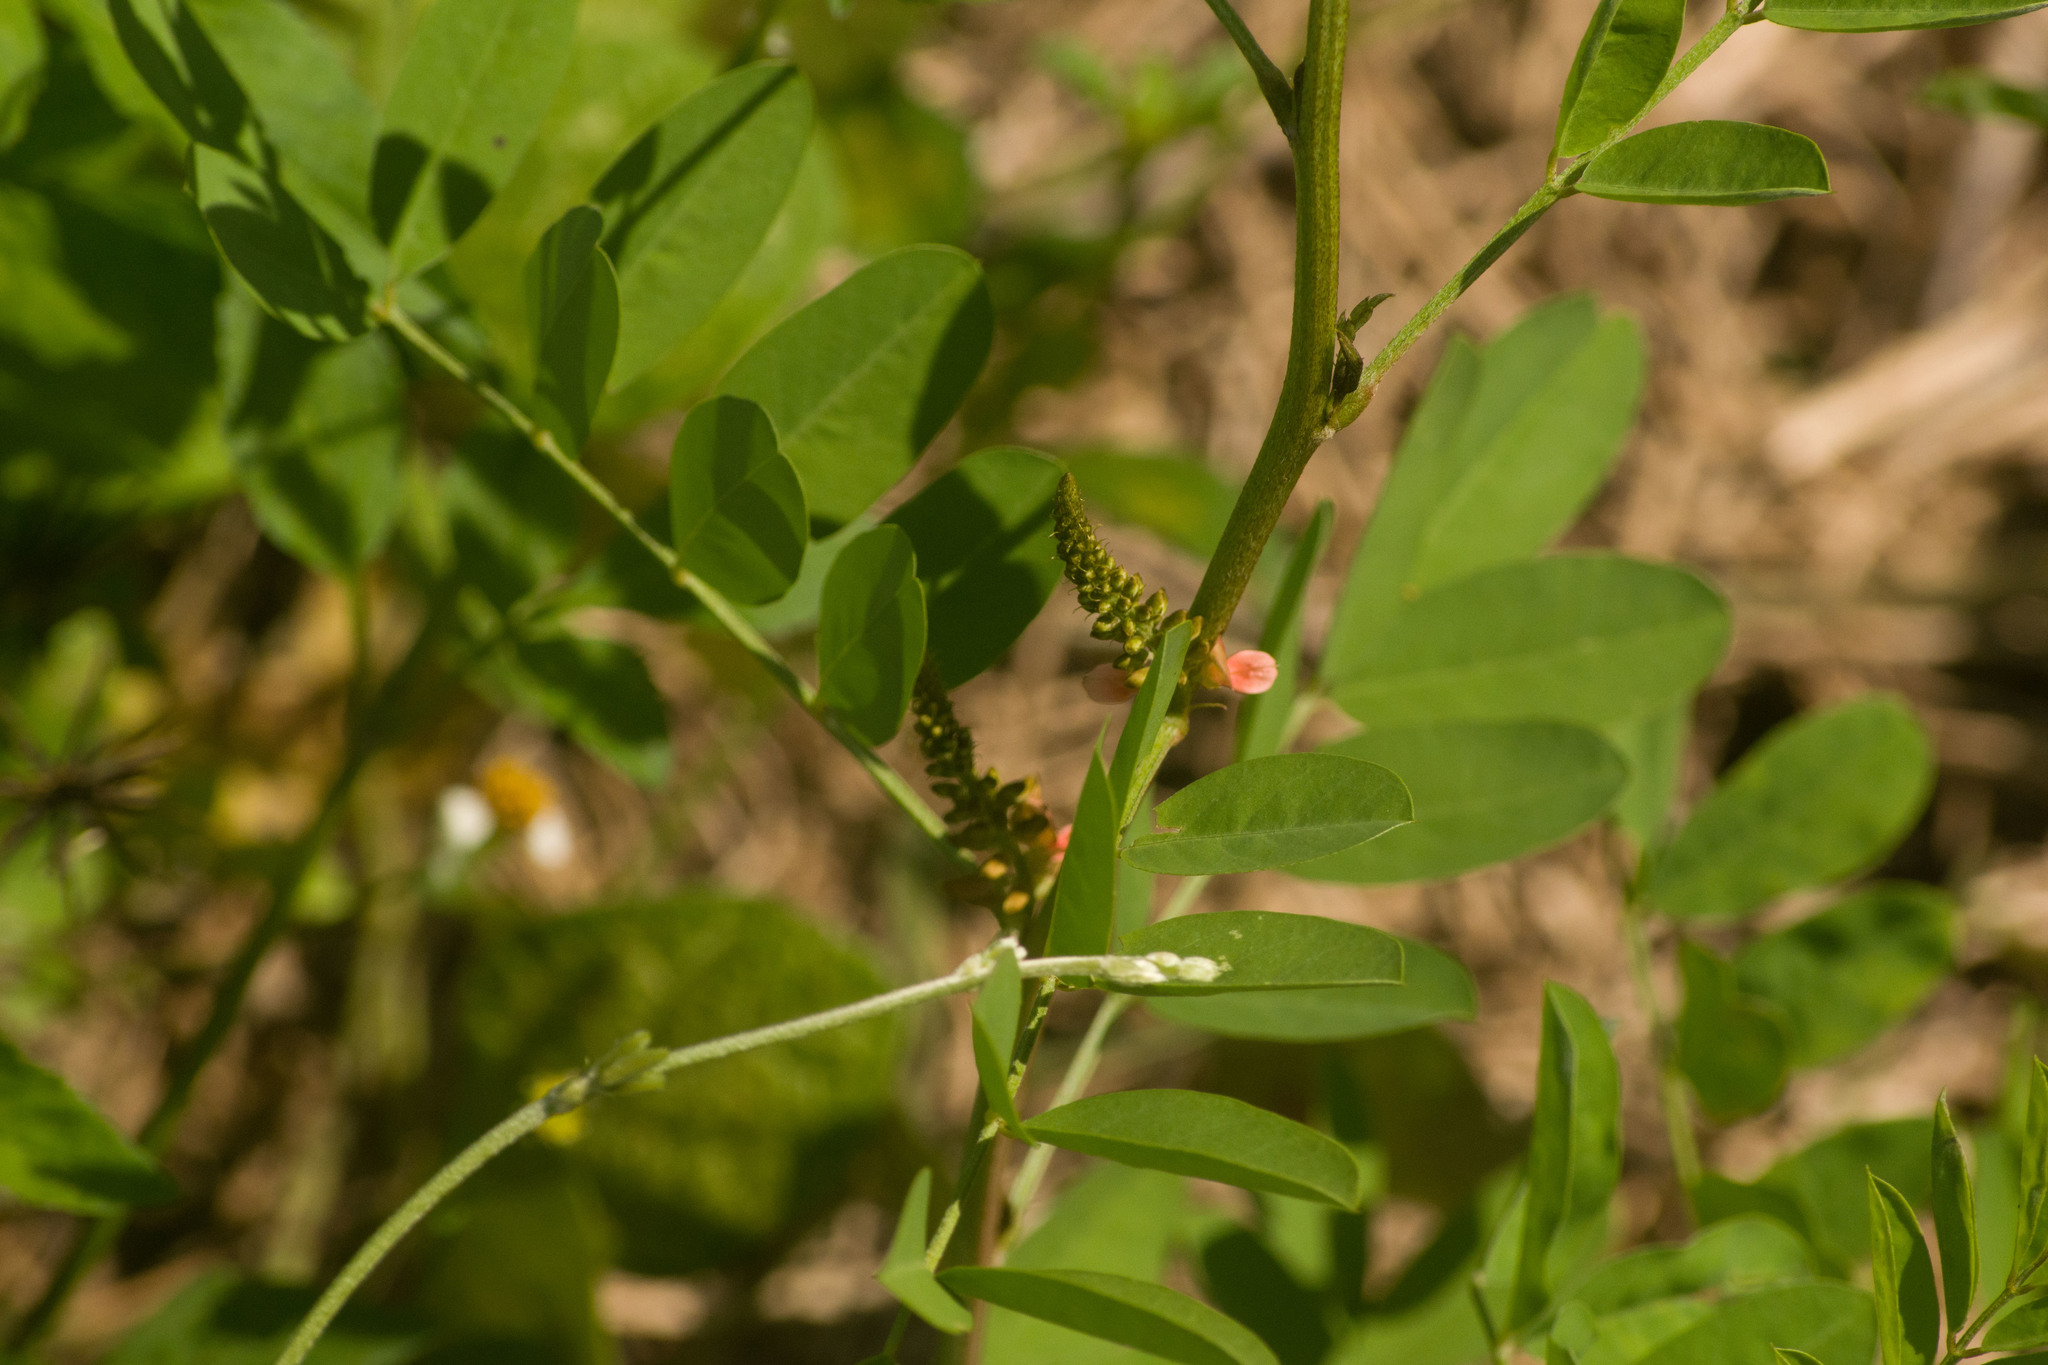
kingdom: Plantae
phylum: Tracheophyta
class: Magnoliopsida
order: Fabales
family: Fabaceae
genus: Indigofera
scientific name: Indigofera suffruticosa
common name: Anil de pasto
